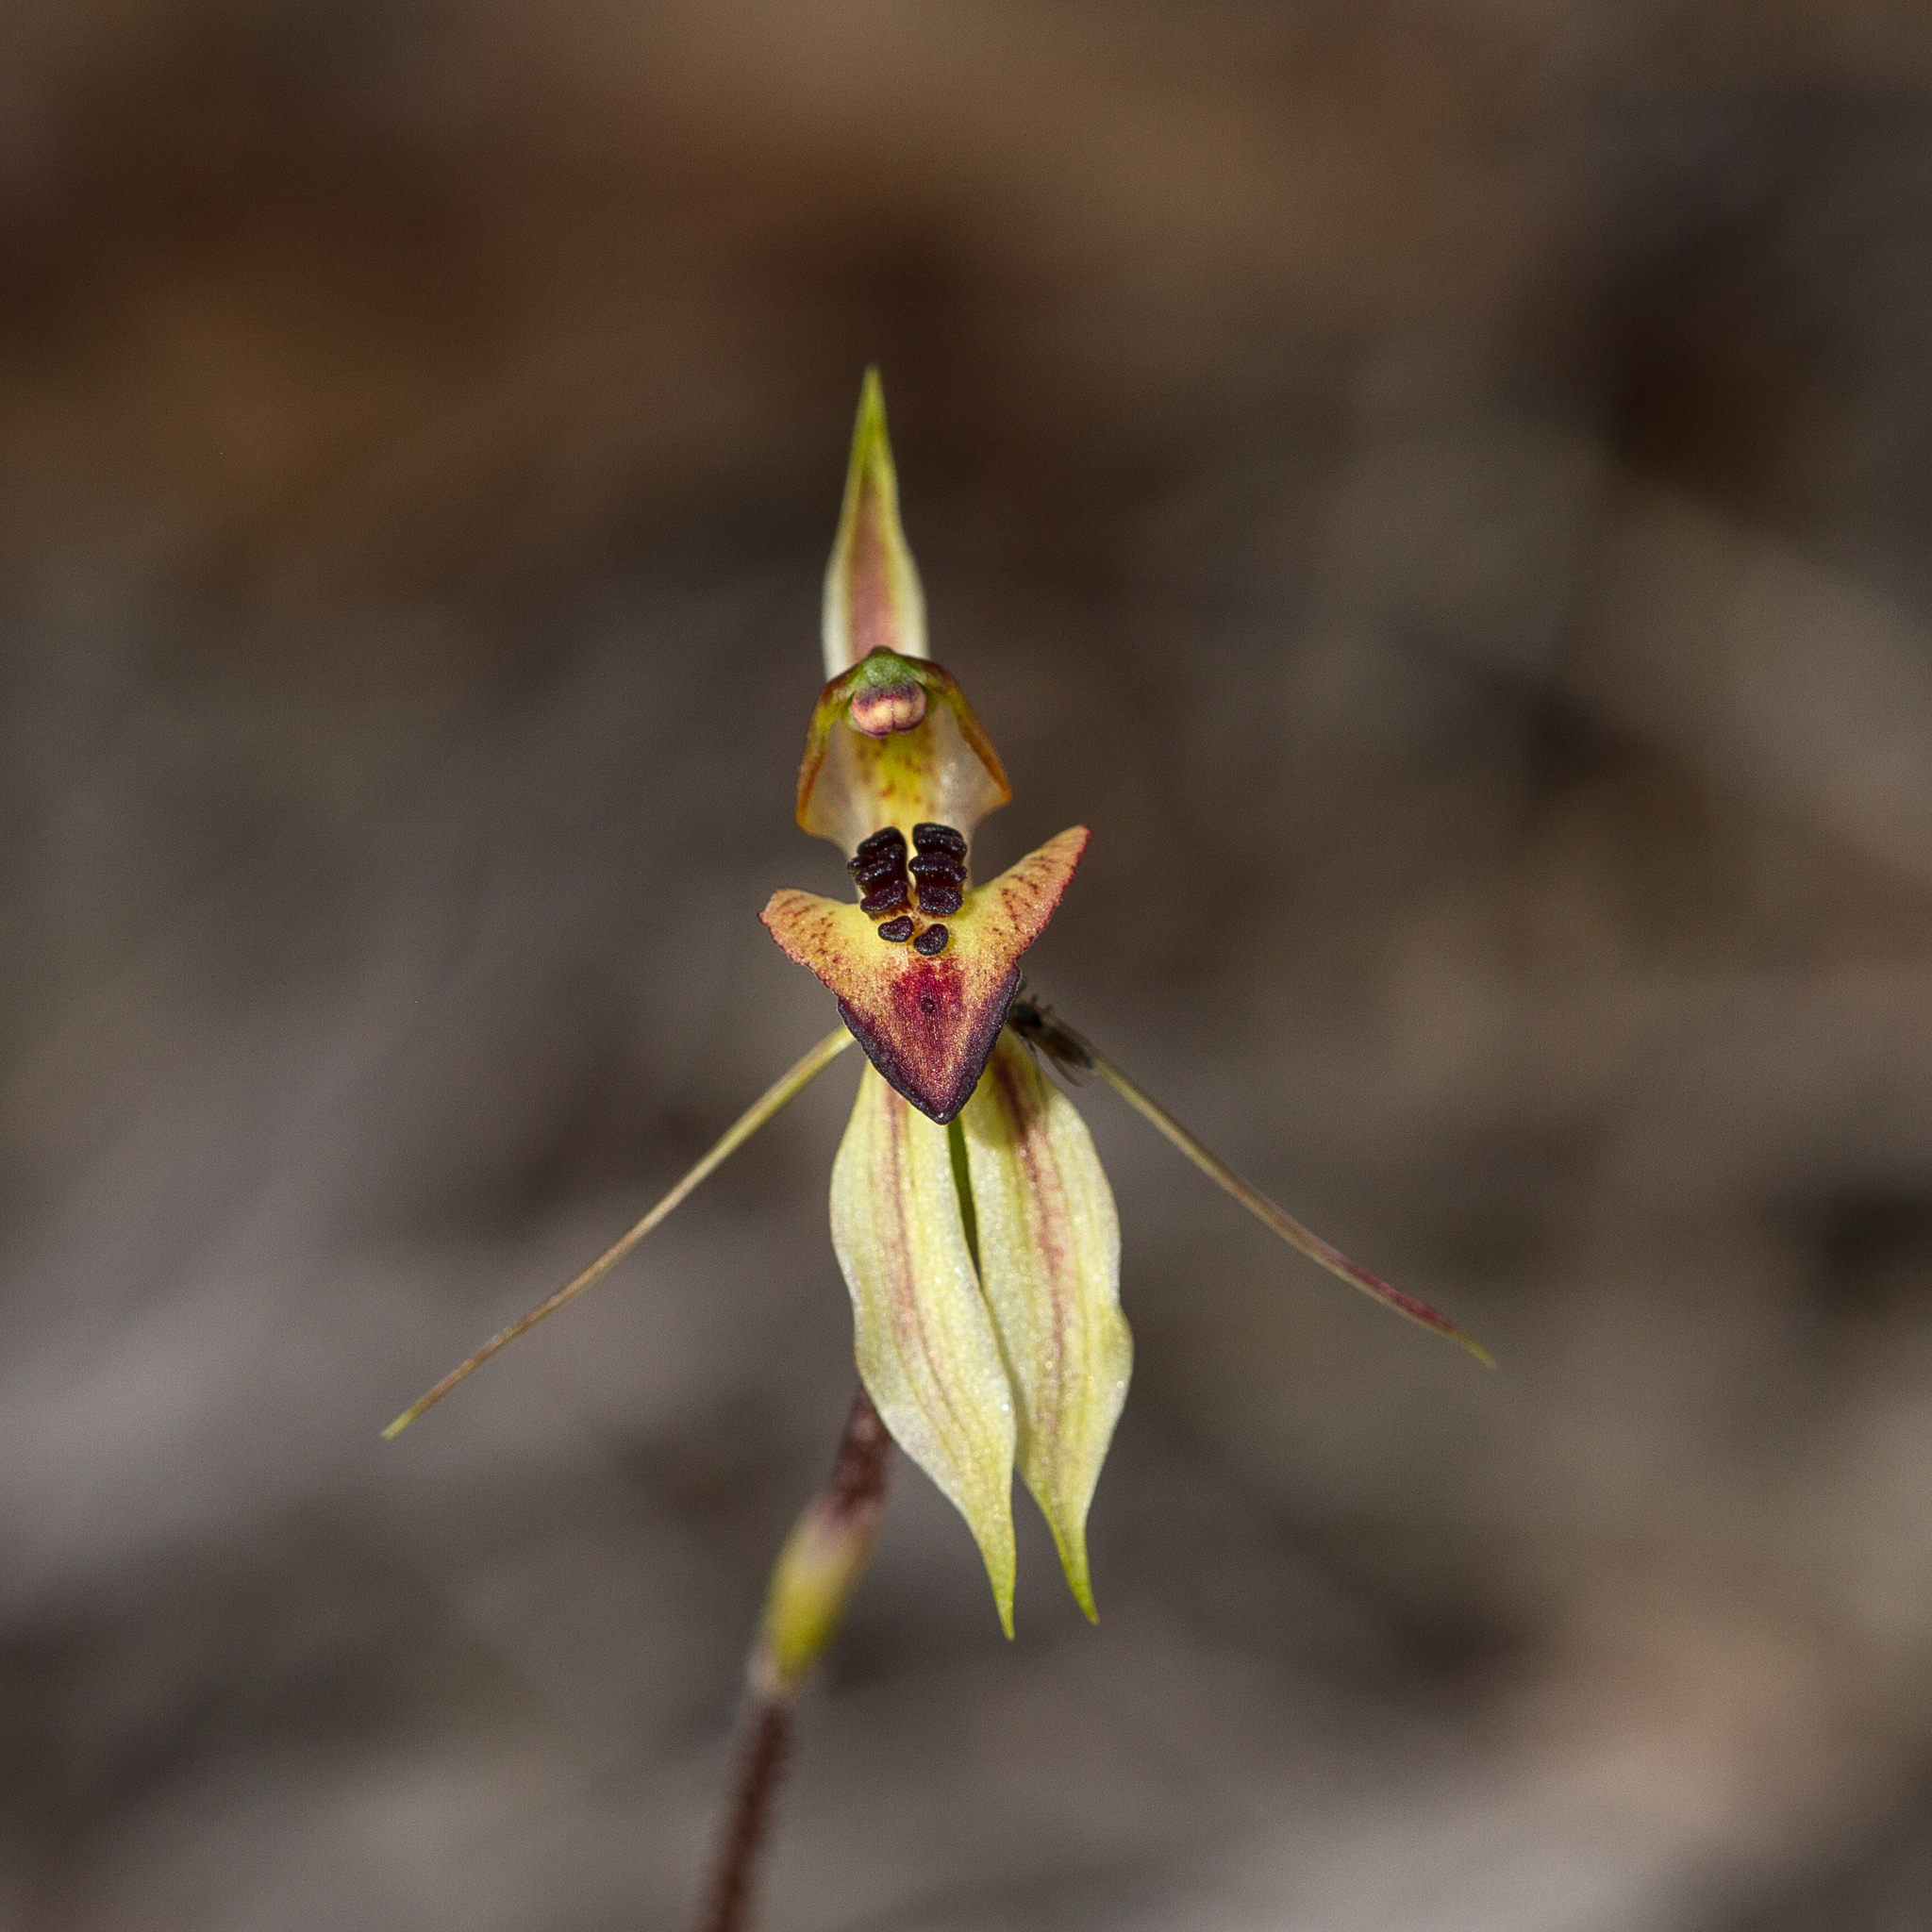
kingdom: Plantae
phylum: Tracheophyta
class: Liliopsida
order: Asparagales
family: Orchidaceae
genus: Caladenia
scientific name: Caladenia cardiochila
